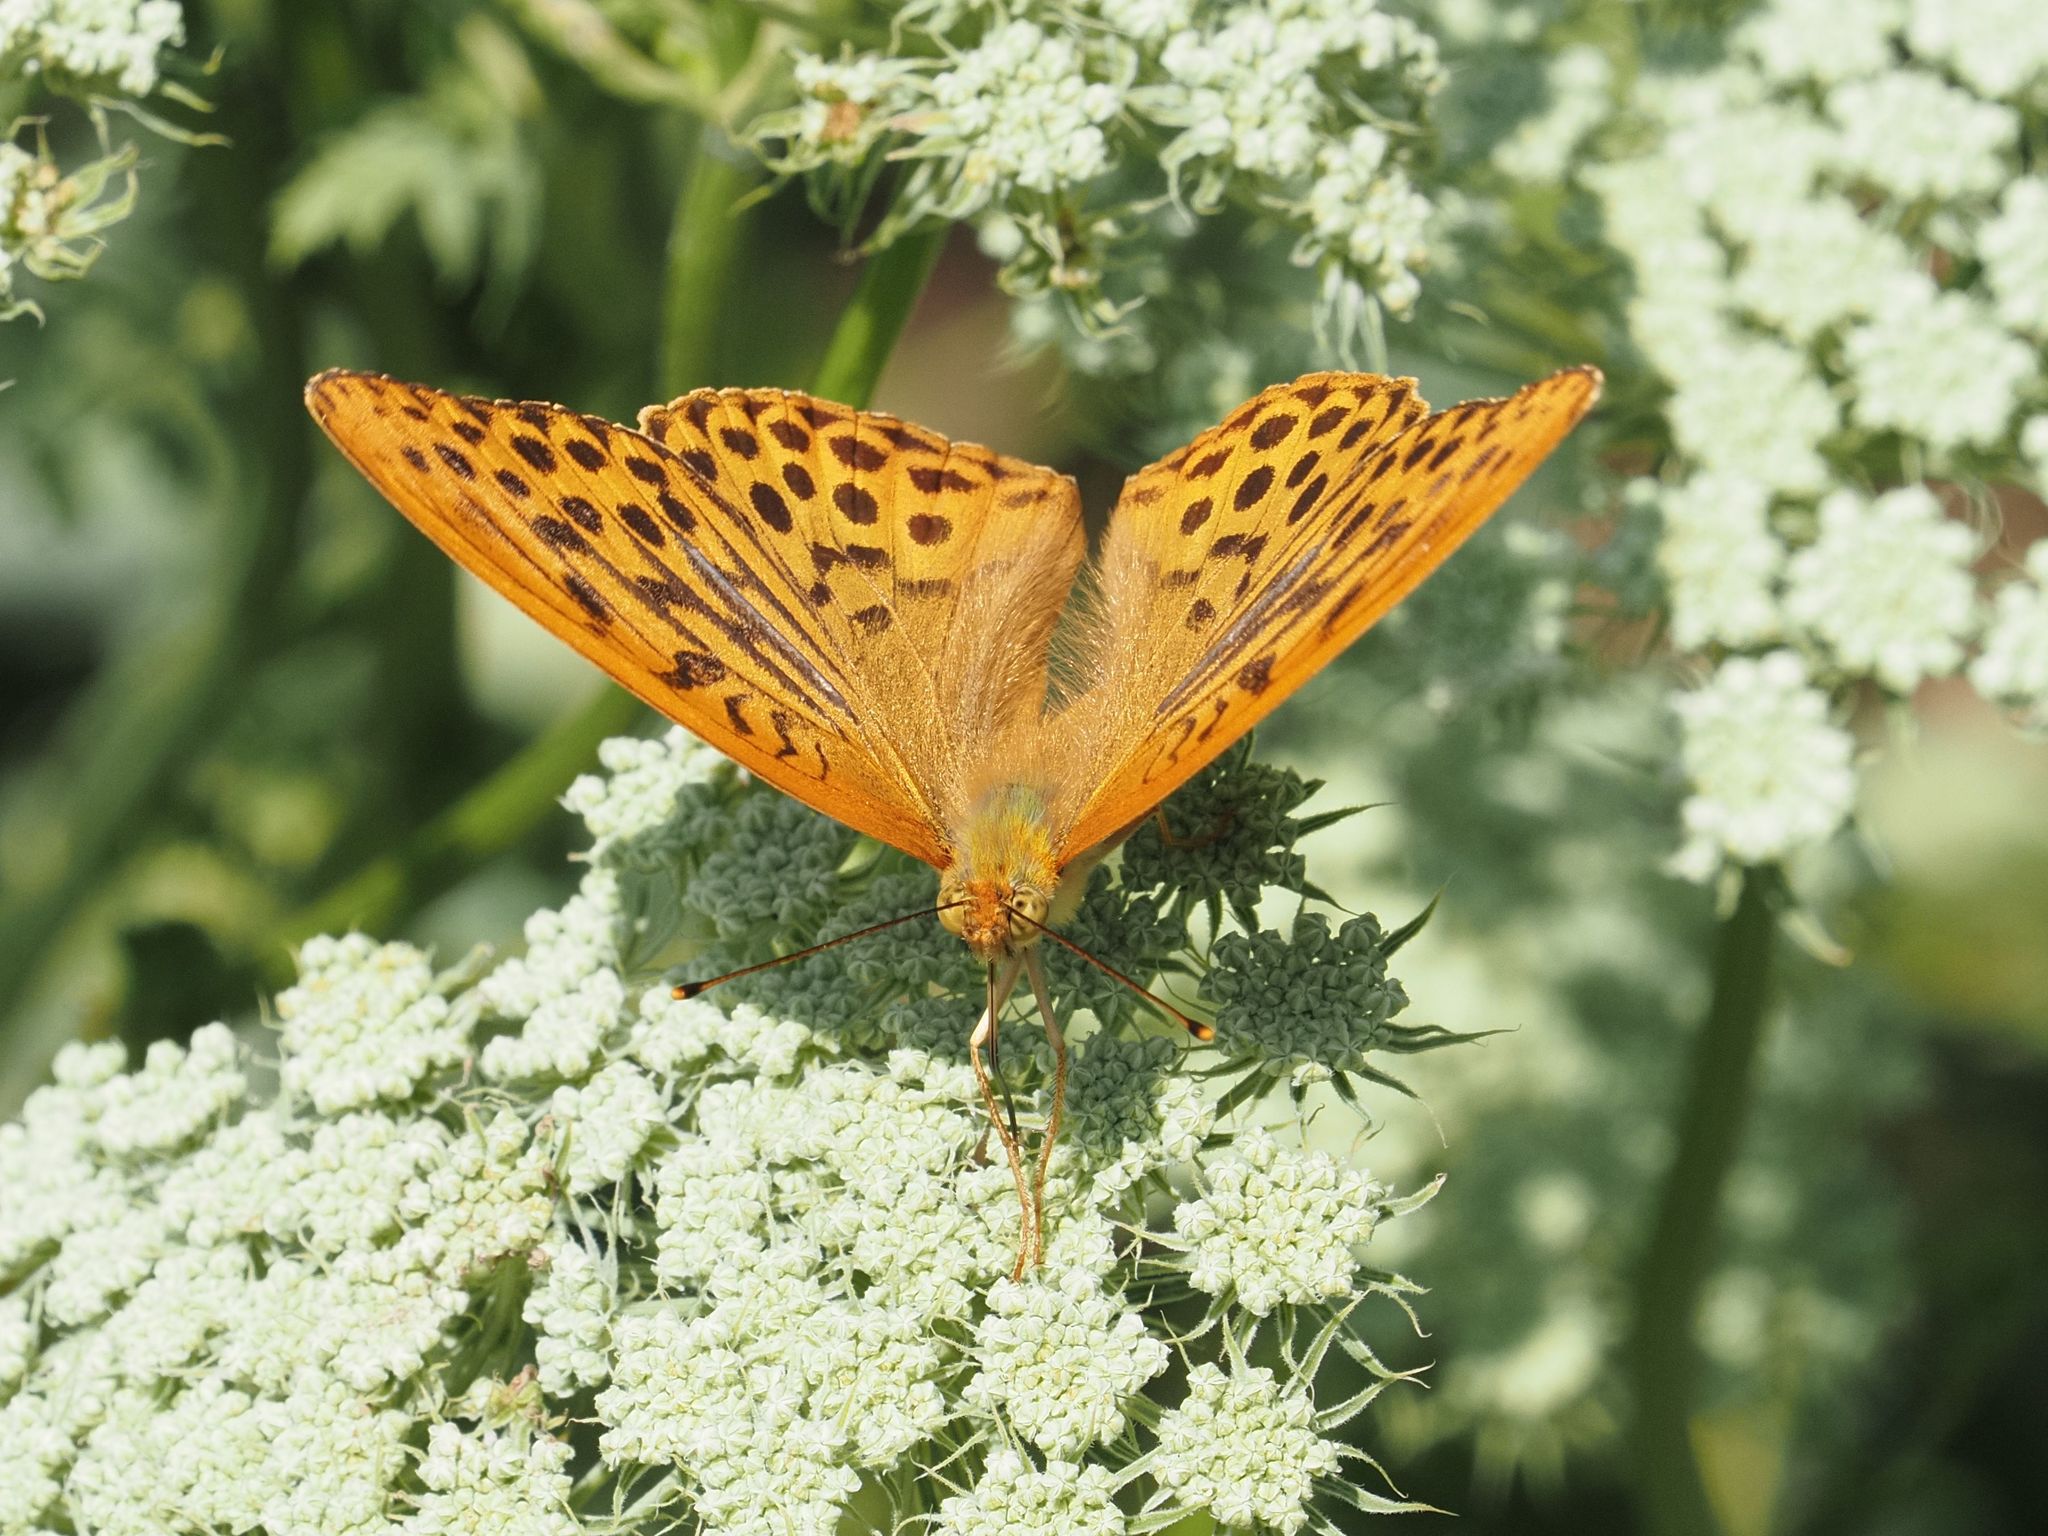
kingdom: Animalia
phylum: Arthropoda
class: Insecta
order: Lepidoptera
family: Nymphalidae
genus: Argynnis
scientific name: Argynnis paphia
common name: Silver-washed fritillary
